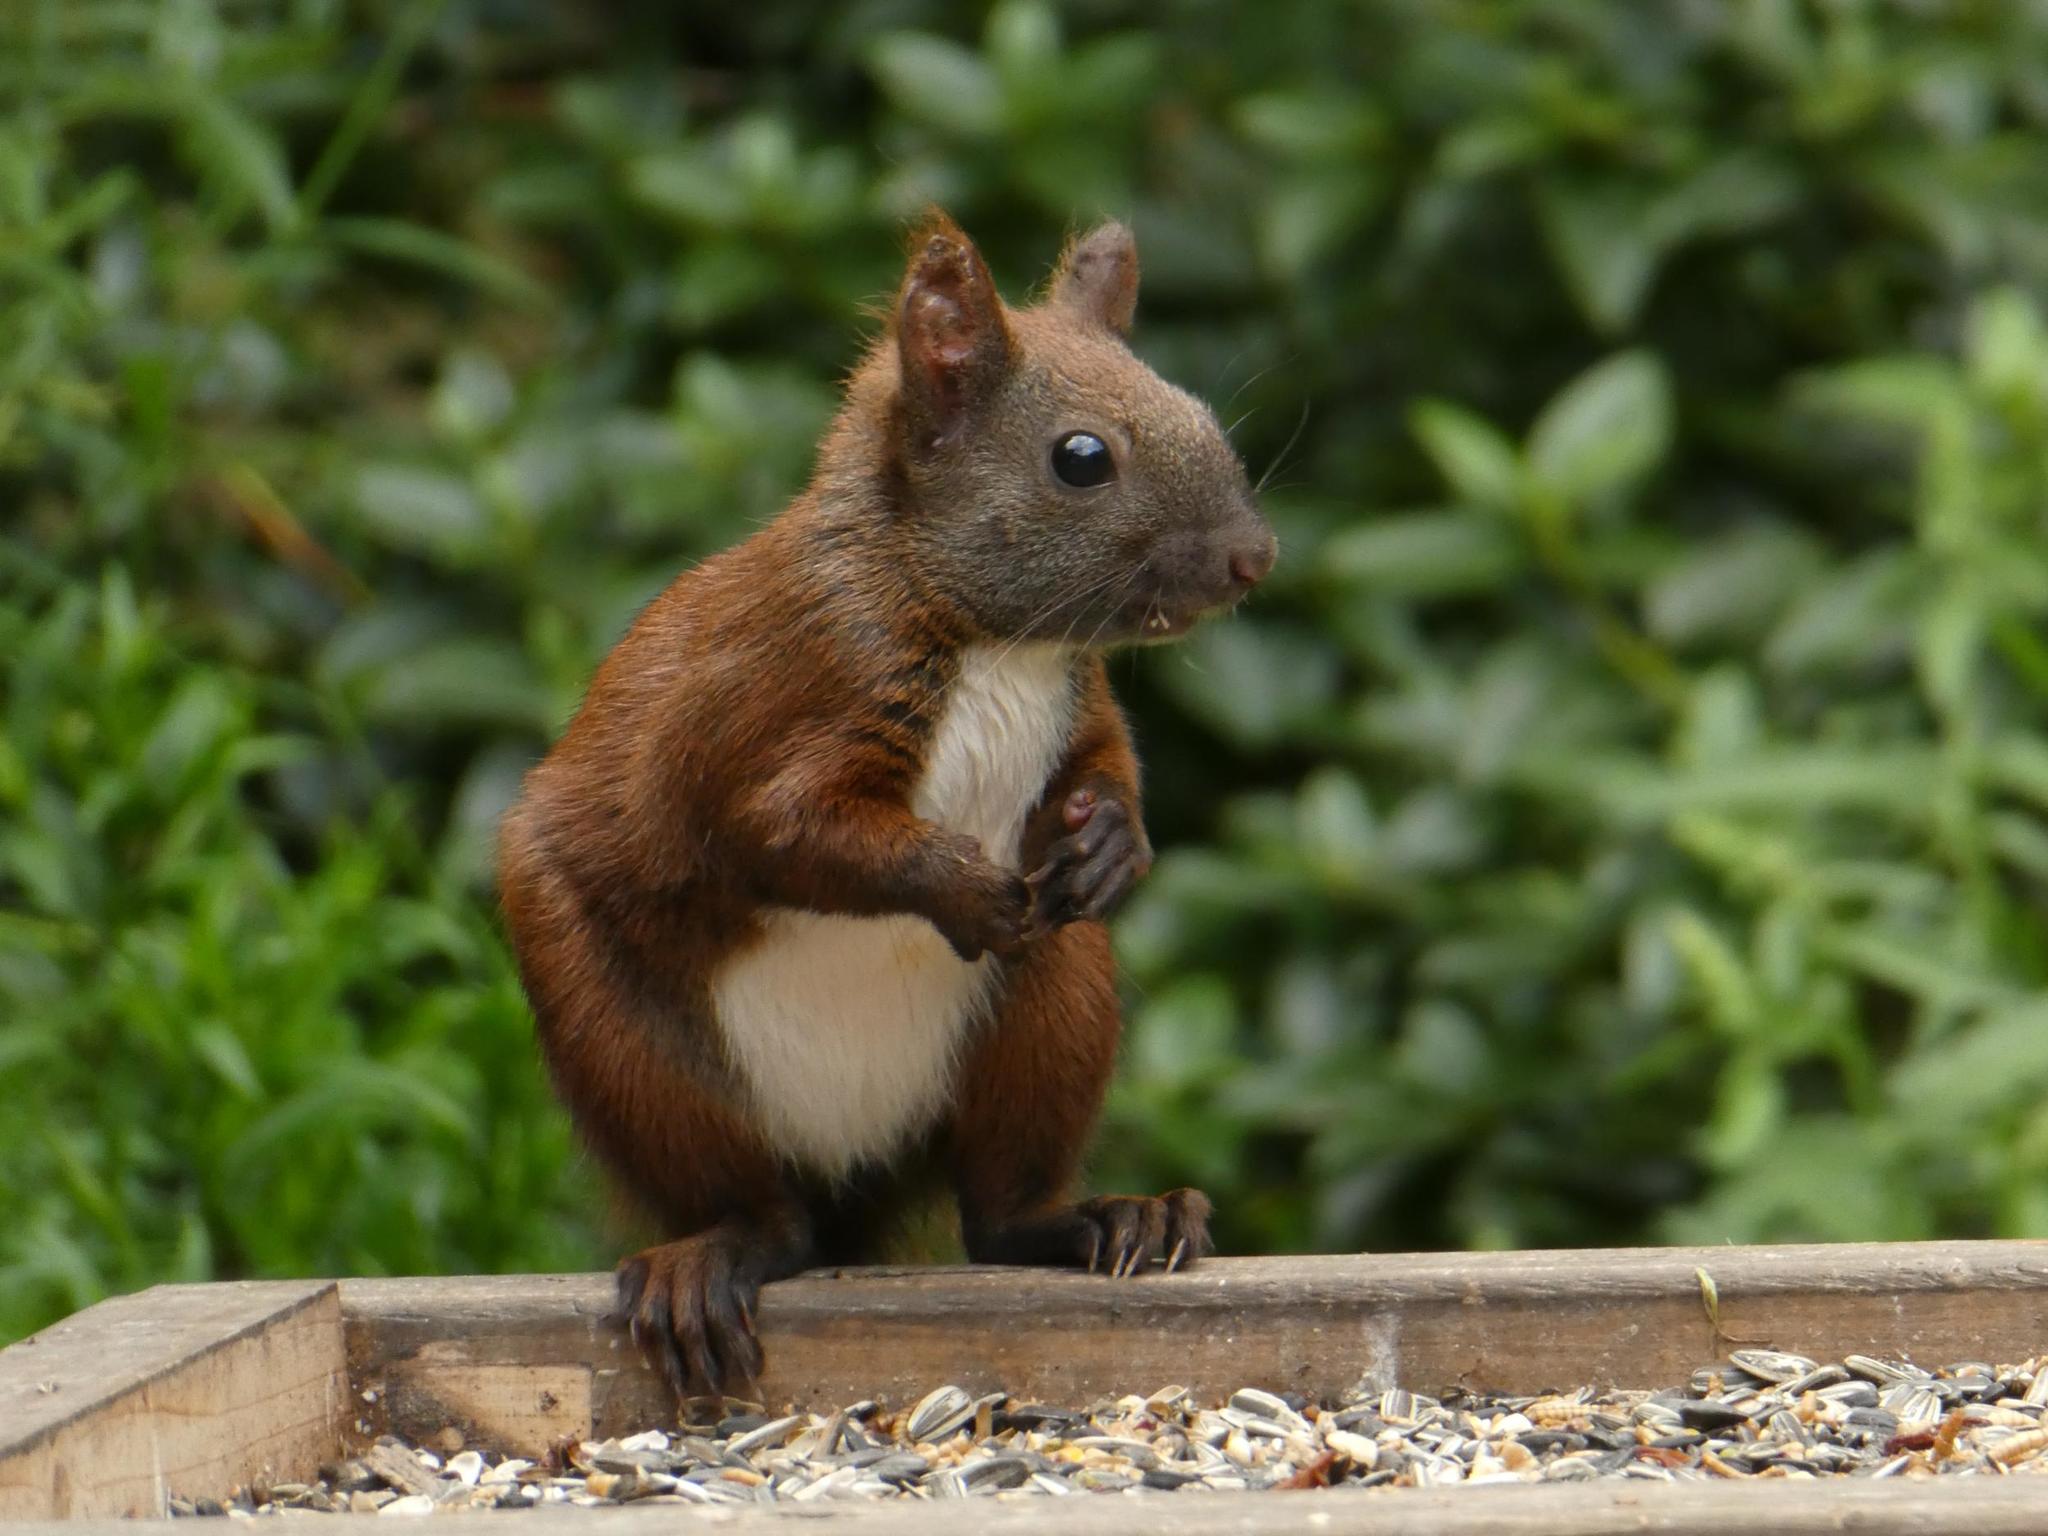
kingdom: Animalia
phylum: Chordata
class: Mammalia
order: Rodentia
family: Sciuridae
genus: Sciurus
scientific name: Sciurus vulgaris
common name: Eurasian red squirrel
